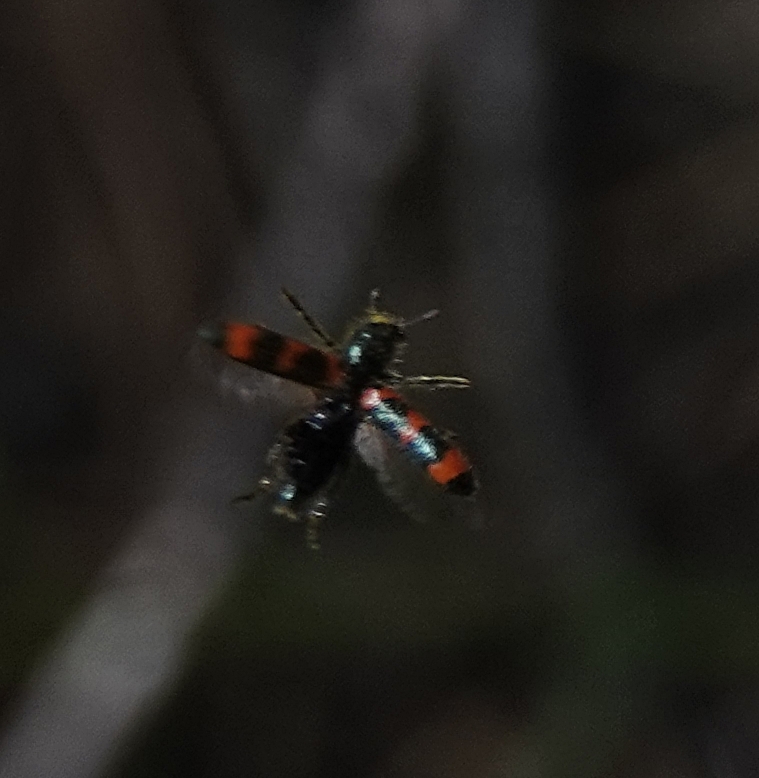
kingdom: Animalia
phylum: Arthropoda
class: Insecta
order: Coleoptera
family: Cleridae
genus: Trichodes
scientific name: Trichodes nutalli
